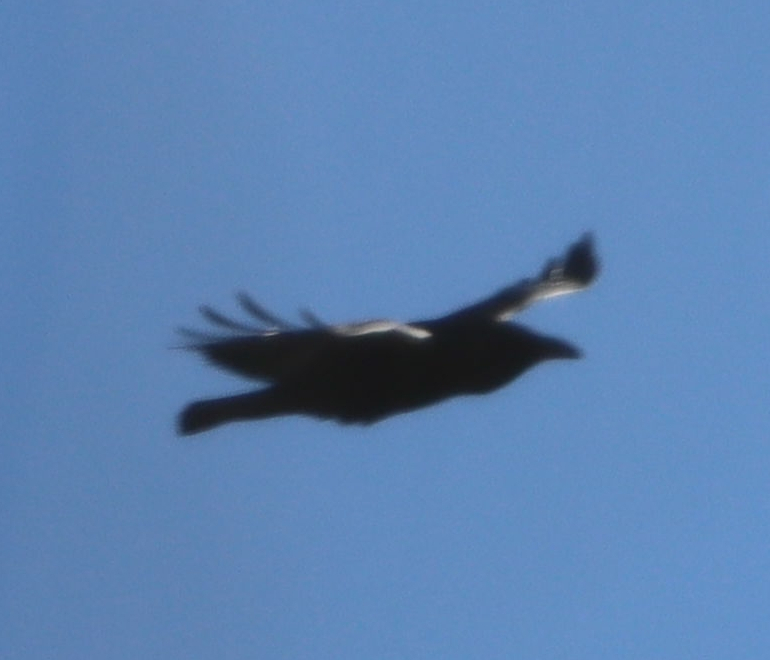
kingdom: Animalia
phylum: Chordata
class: Aves
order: Passeriformes
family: Corvidae
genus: Corvus
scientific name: Corvus corax
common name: Common raven
